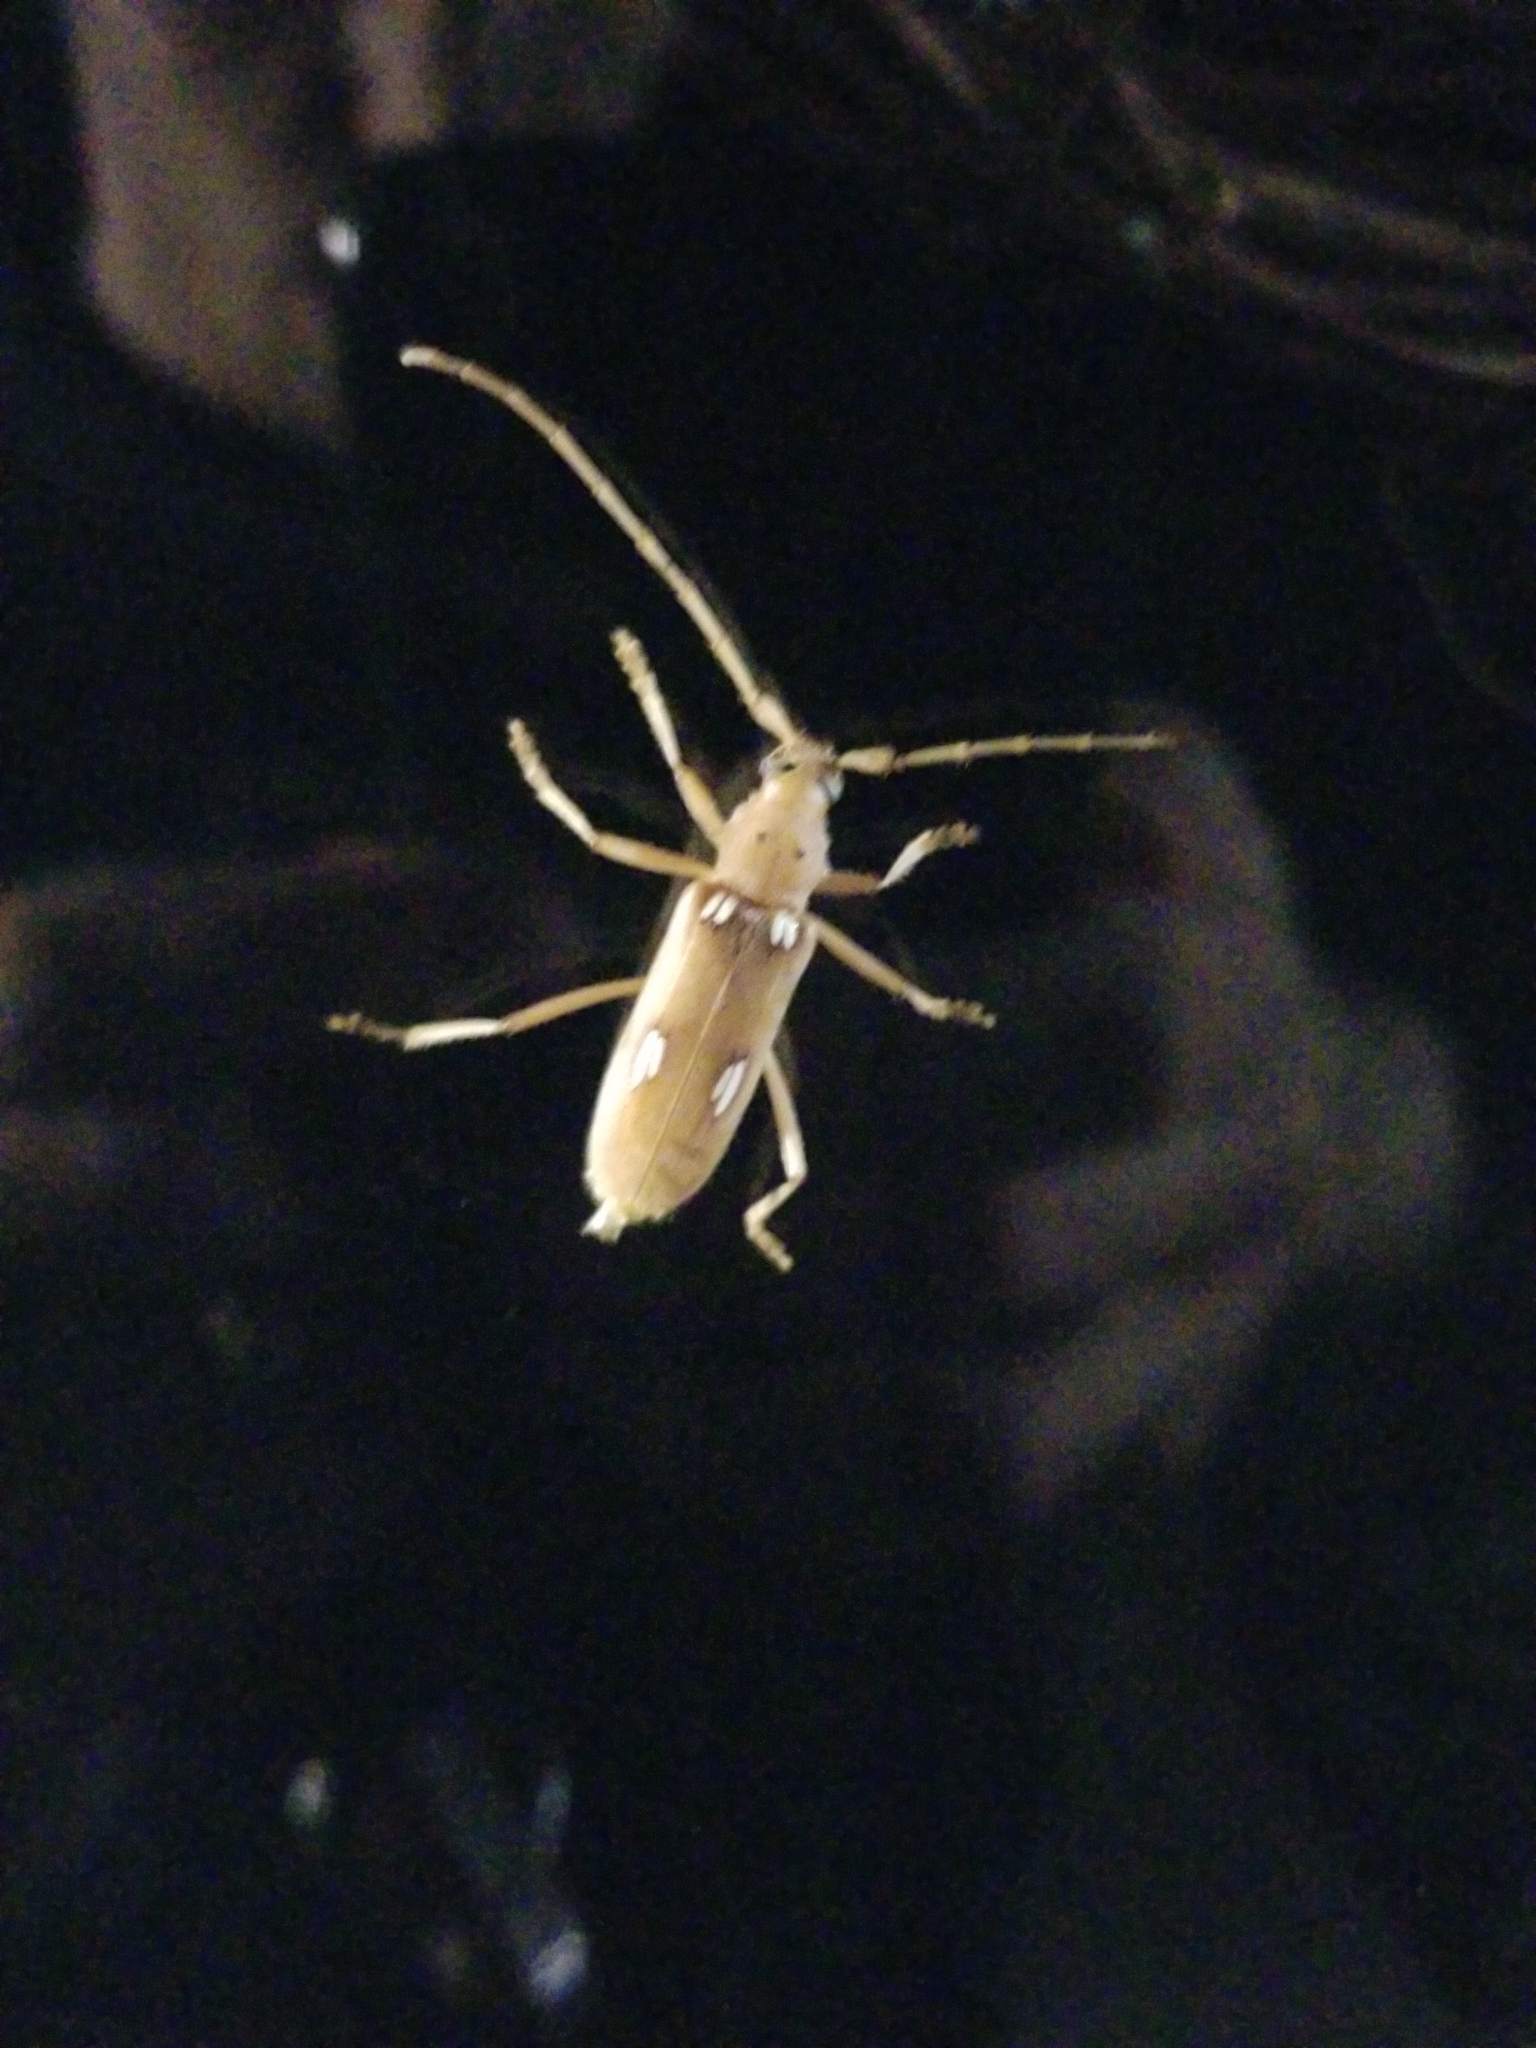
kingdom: Animalia
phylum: Arthropoda
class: Insecta
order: Coleoptera
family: Cerambycidae
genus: Eburia
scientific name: Eburia quadrigeminata
